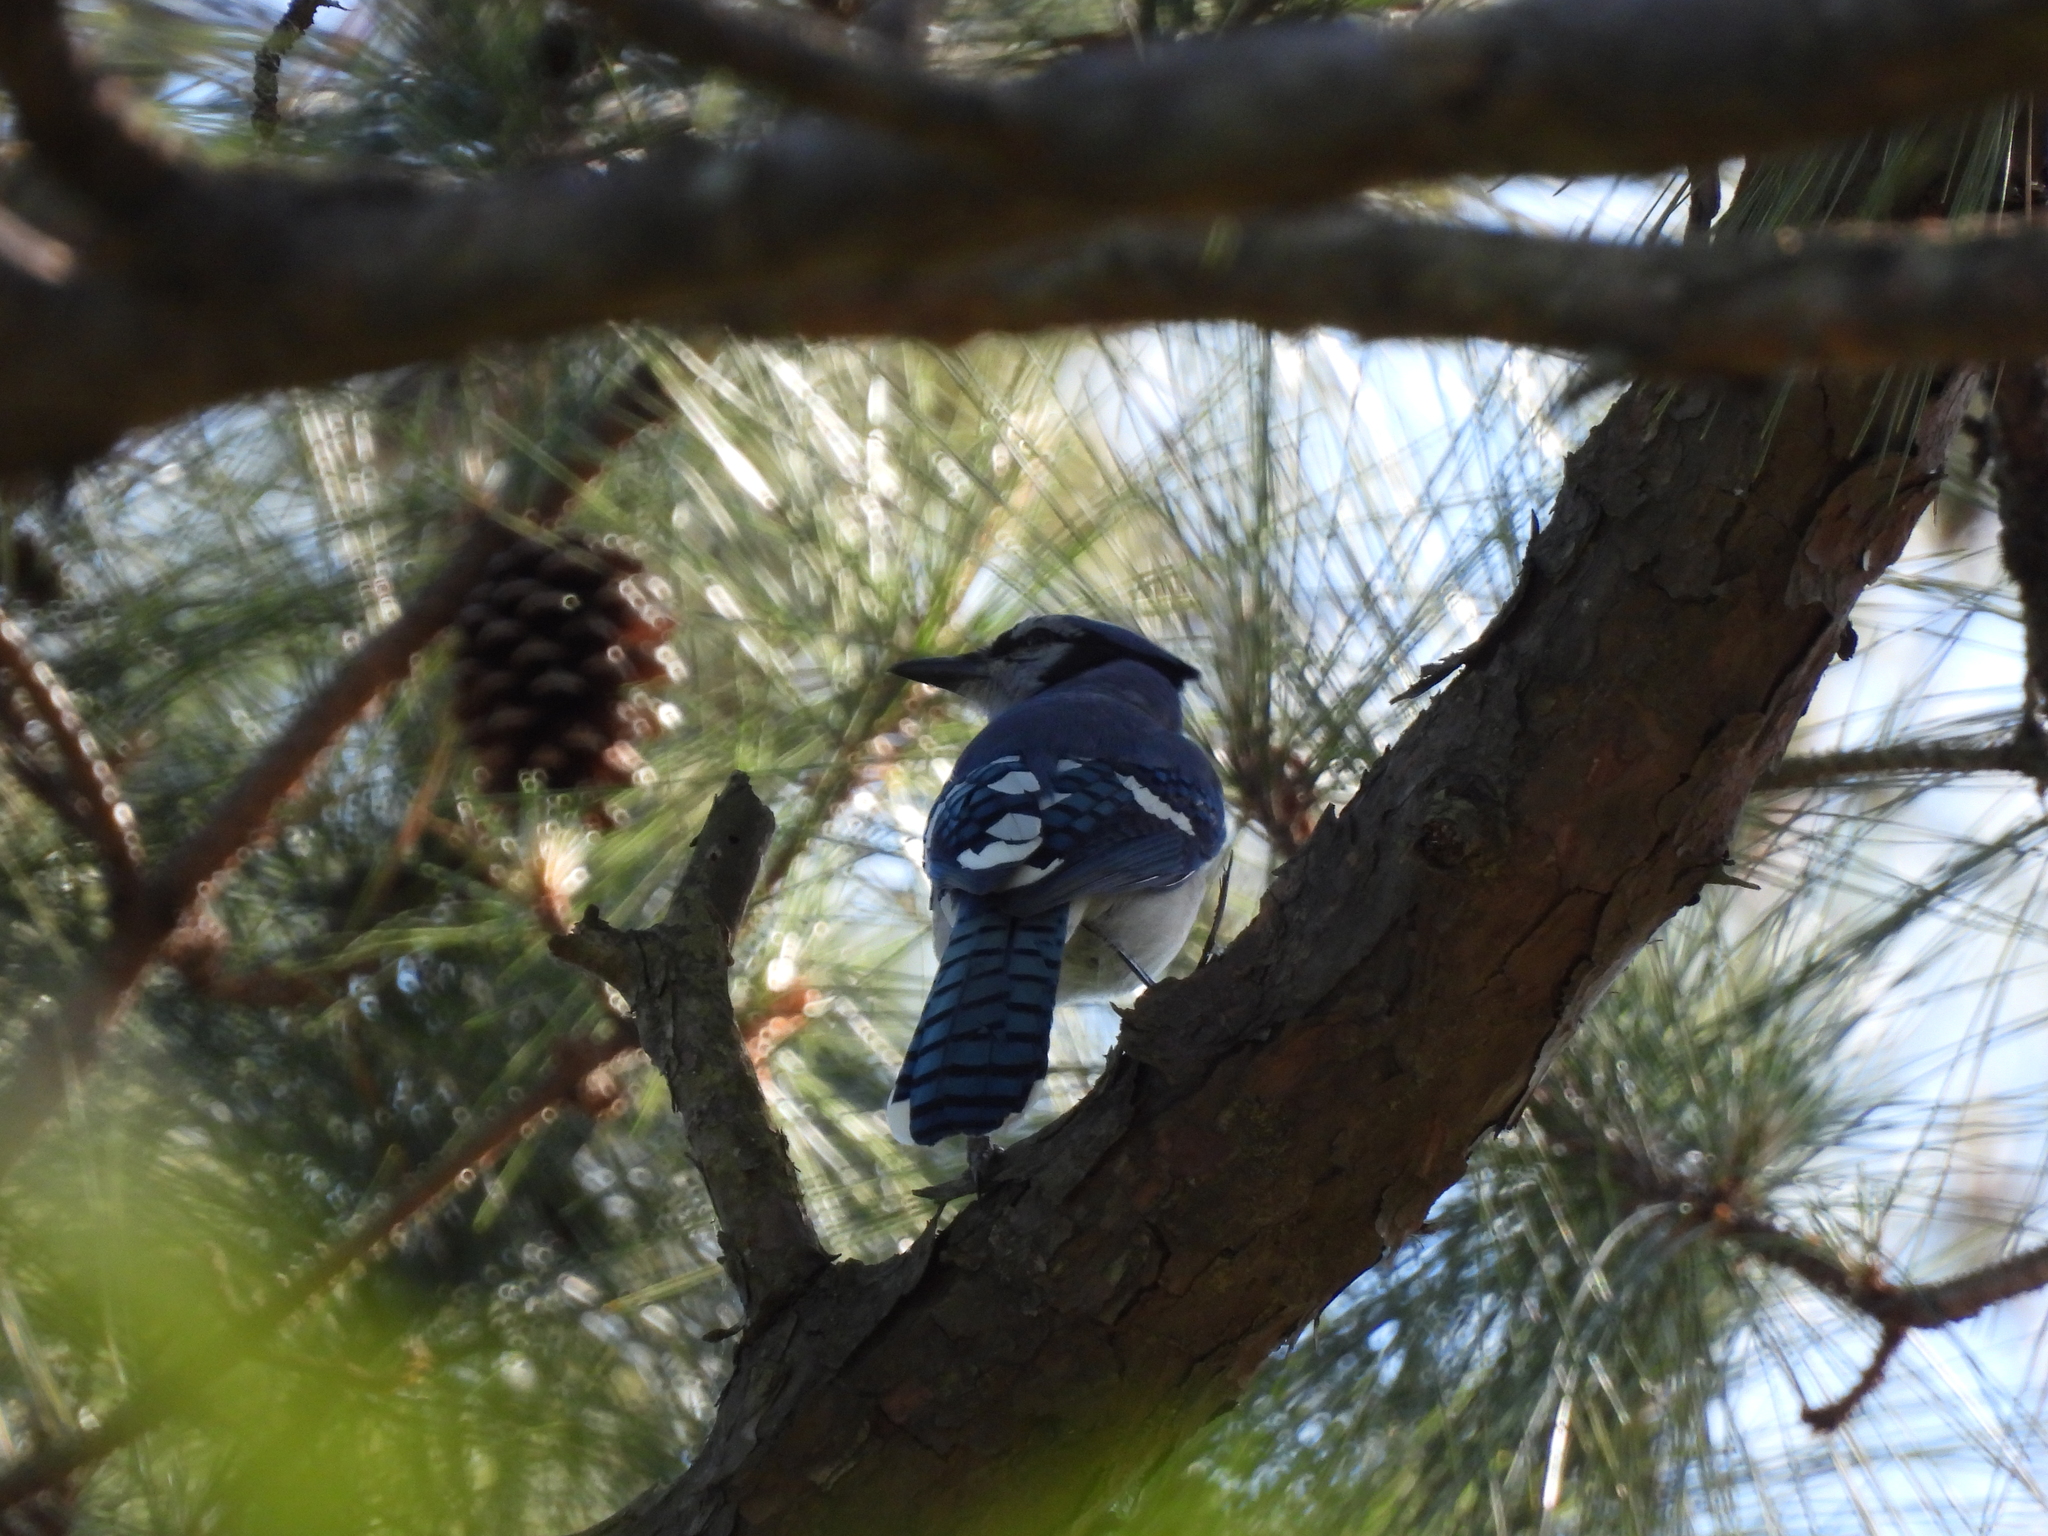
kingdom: Animalia
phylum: Chordata
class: Aves
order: Passeriformes
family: Corvidae
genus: Cyanocitta
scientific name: Cyanocitta cristata
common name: Blue jay
